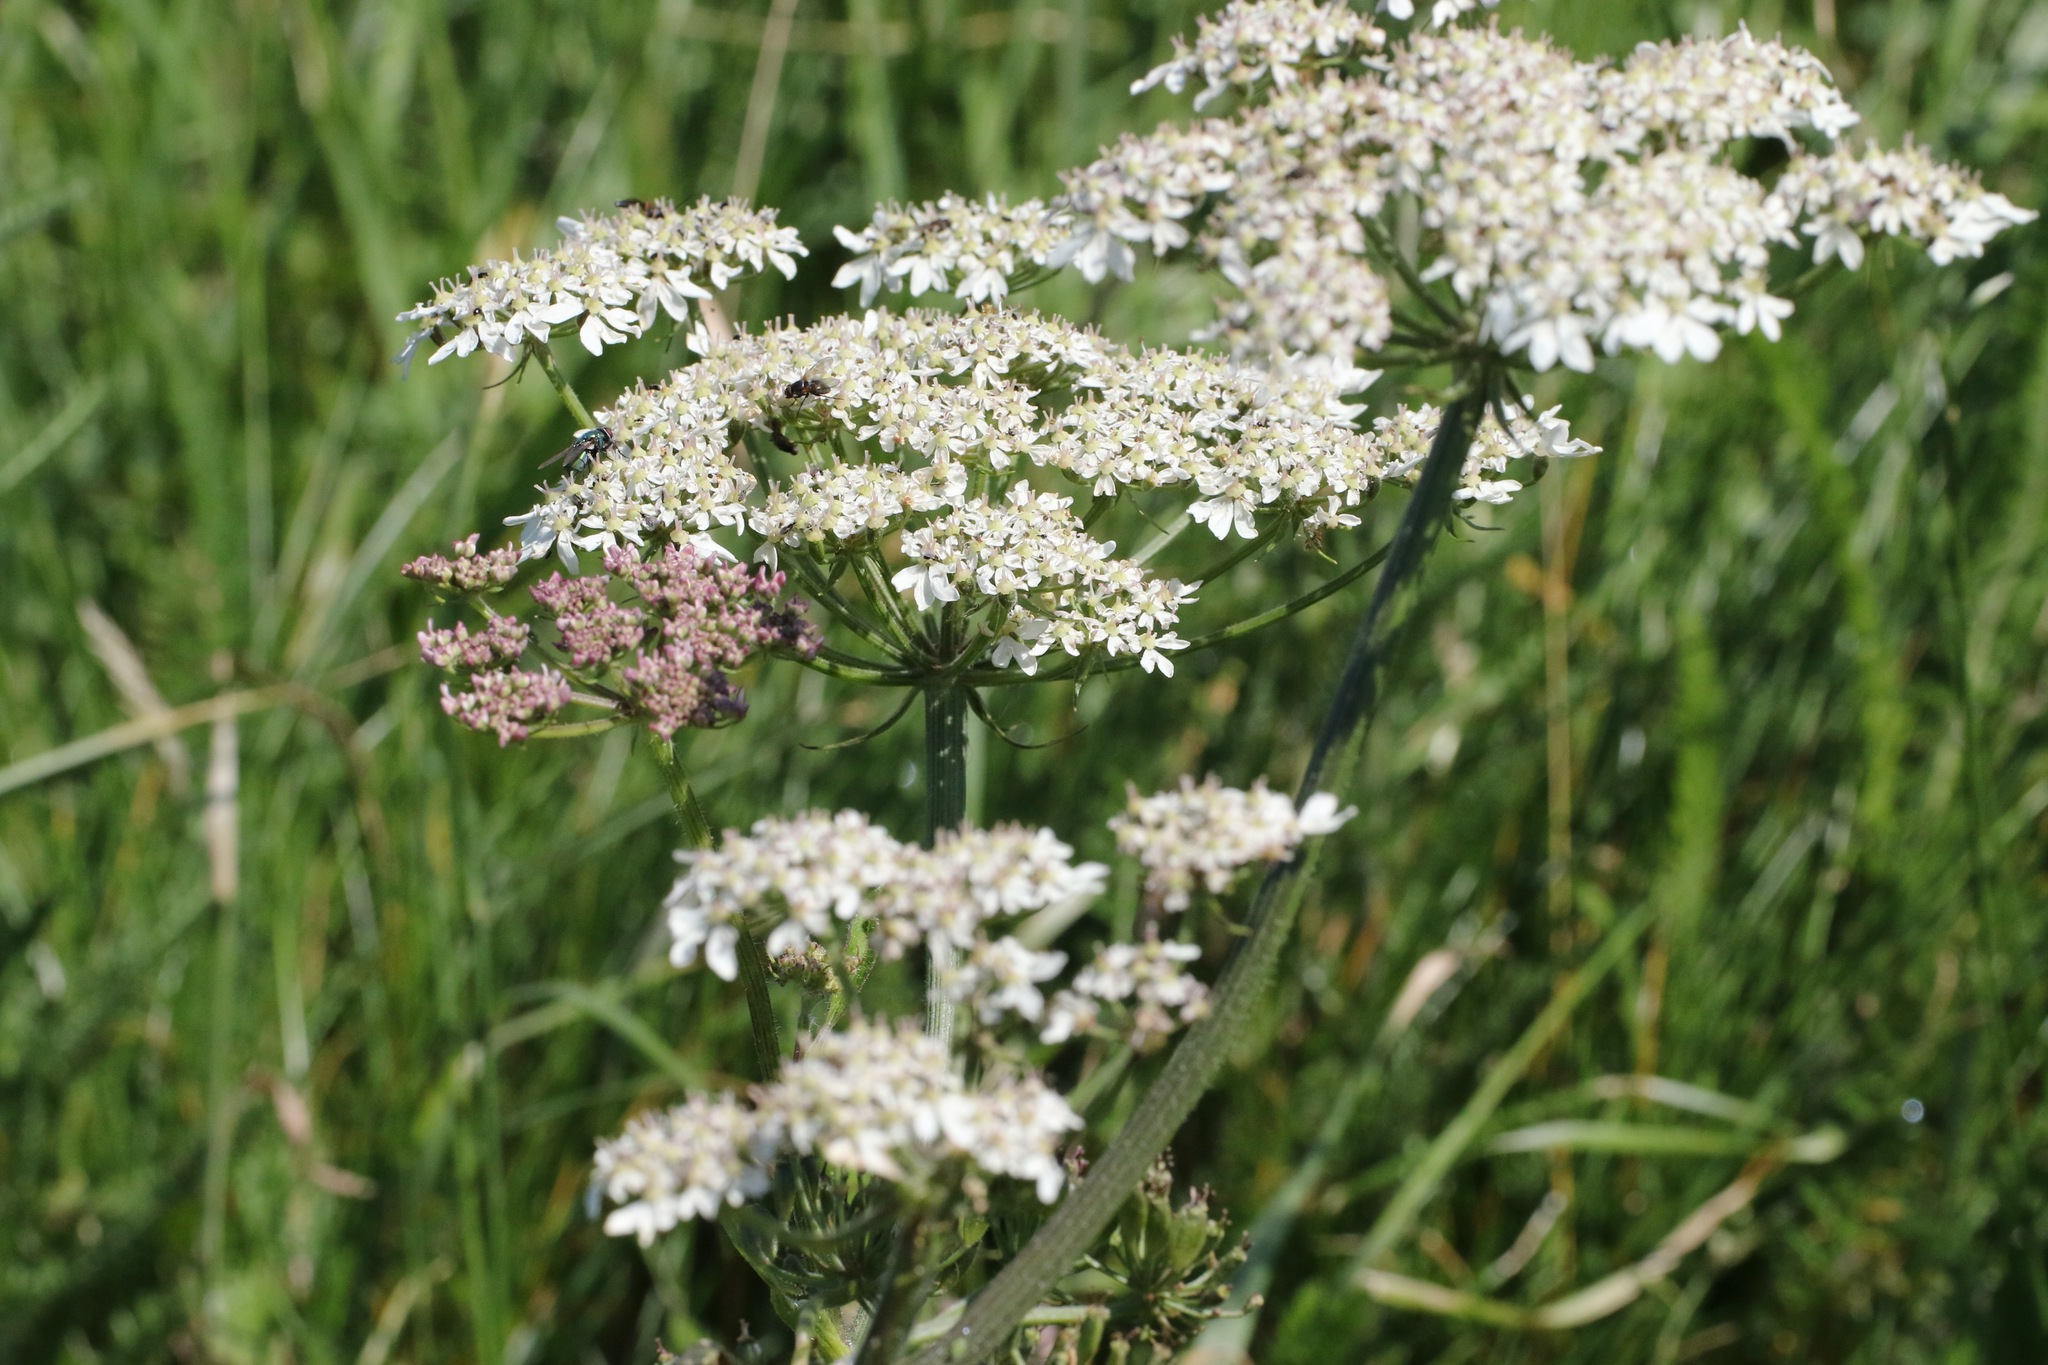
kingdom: Plantae
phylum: Tracheophyta
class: Magnoliopsida
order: Apiales
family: Apiaceae
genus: Heracleum
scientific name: Heracleum sphondylium
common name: Hogweed
